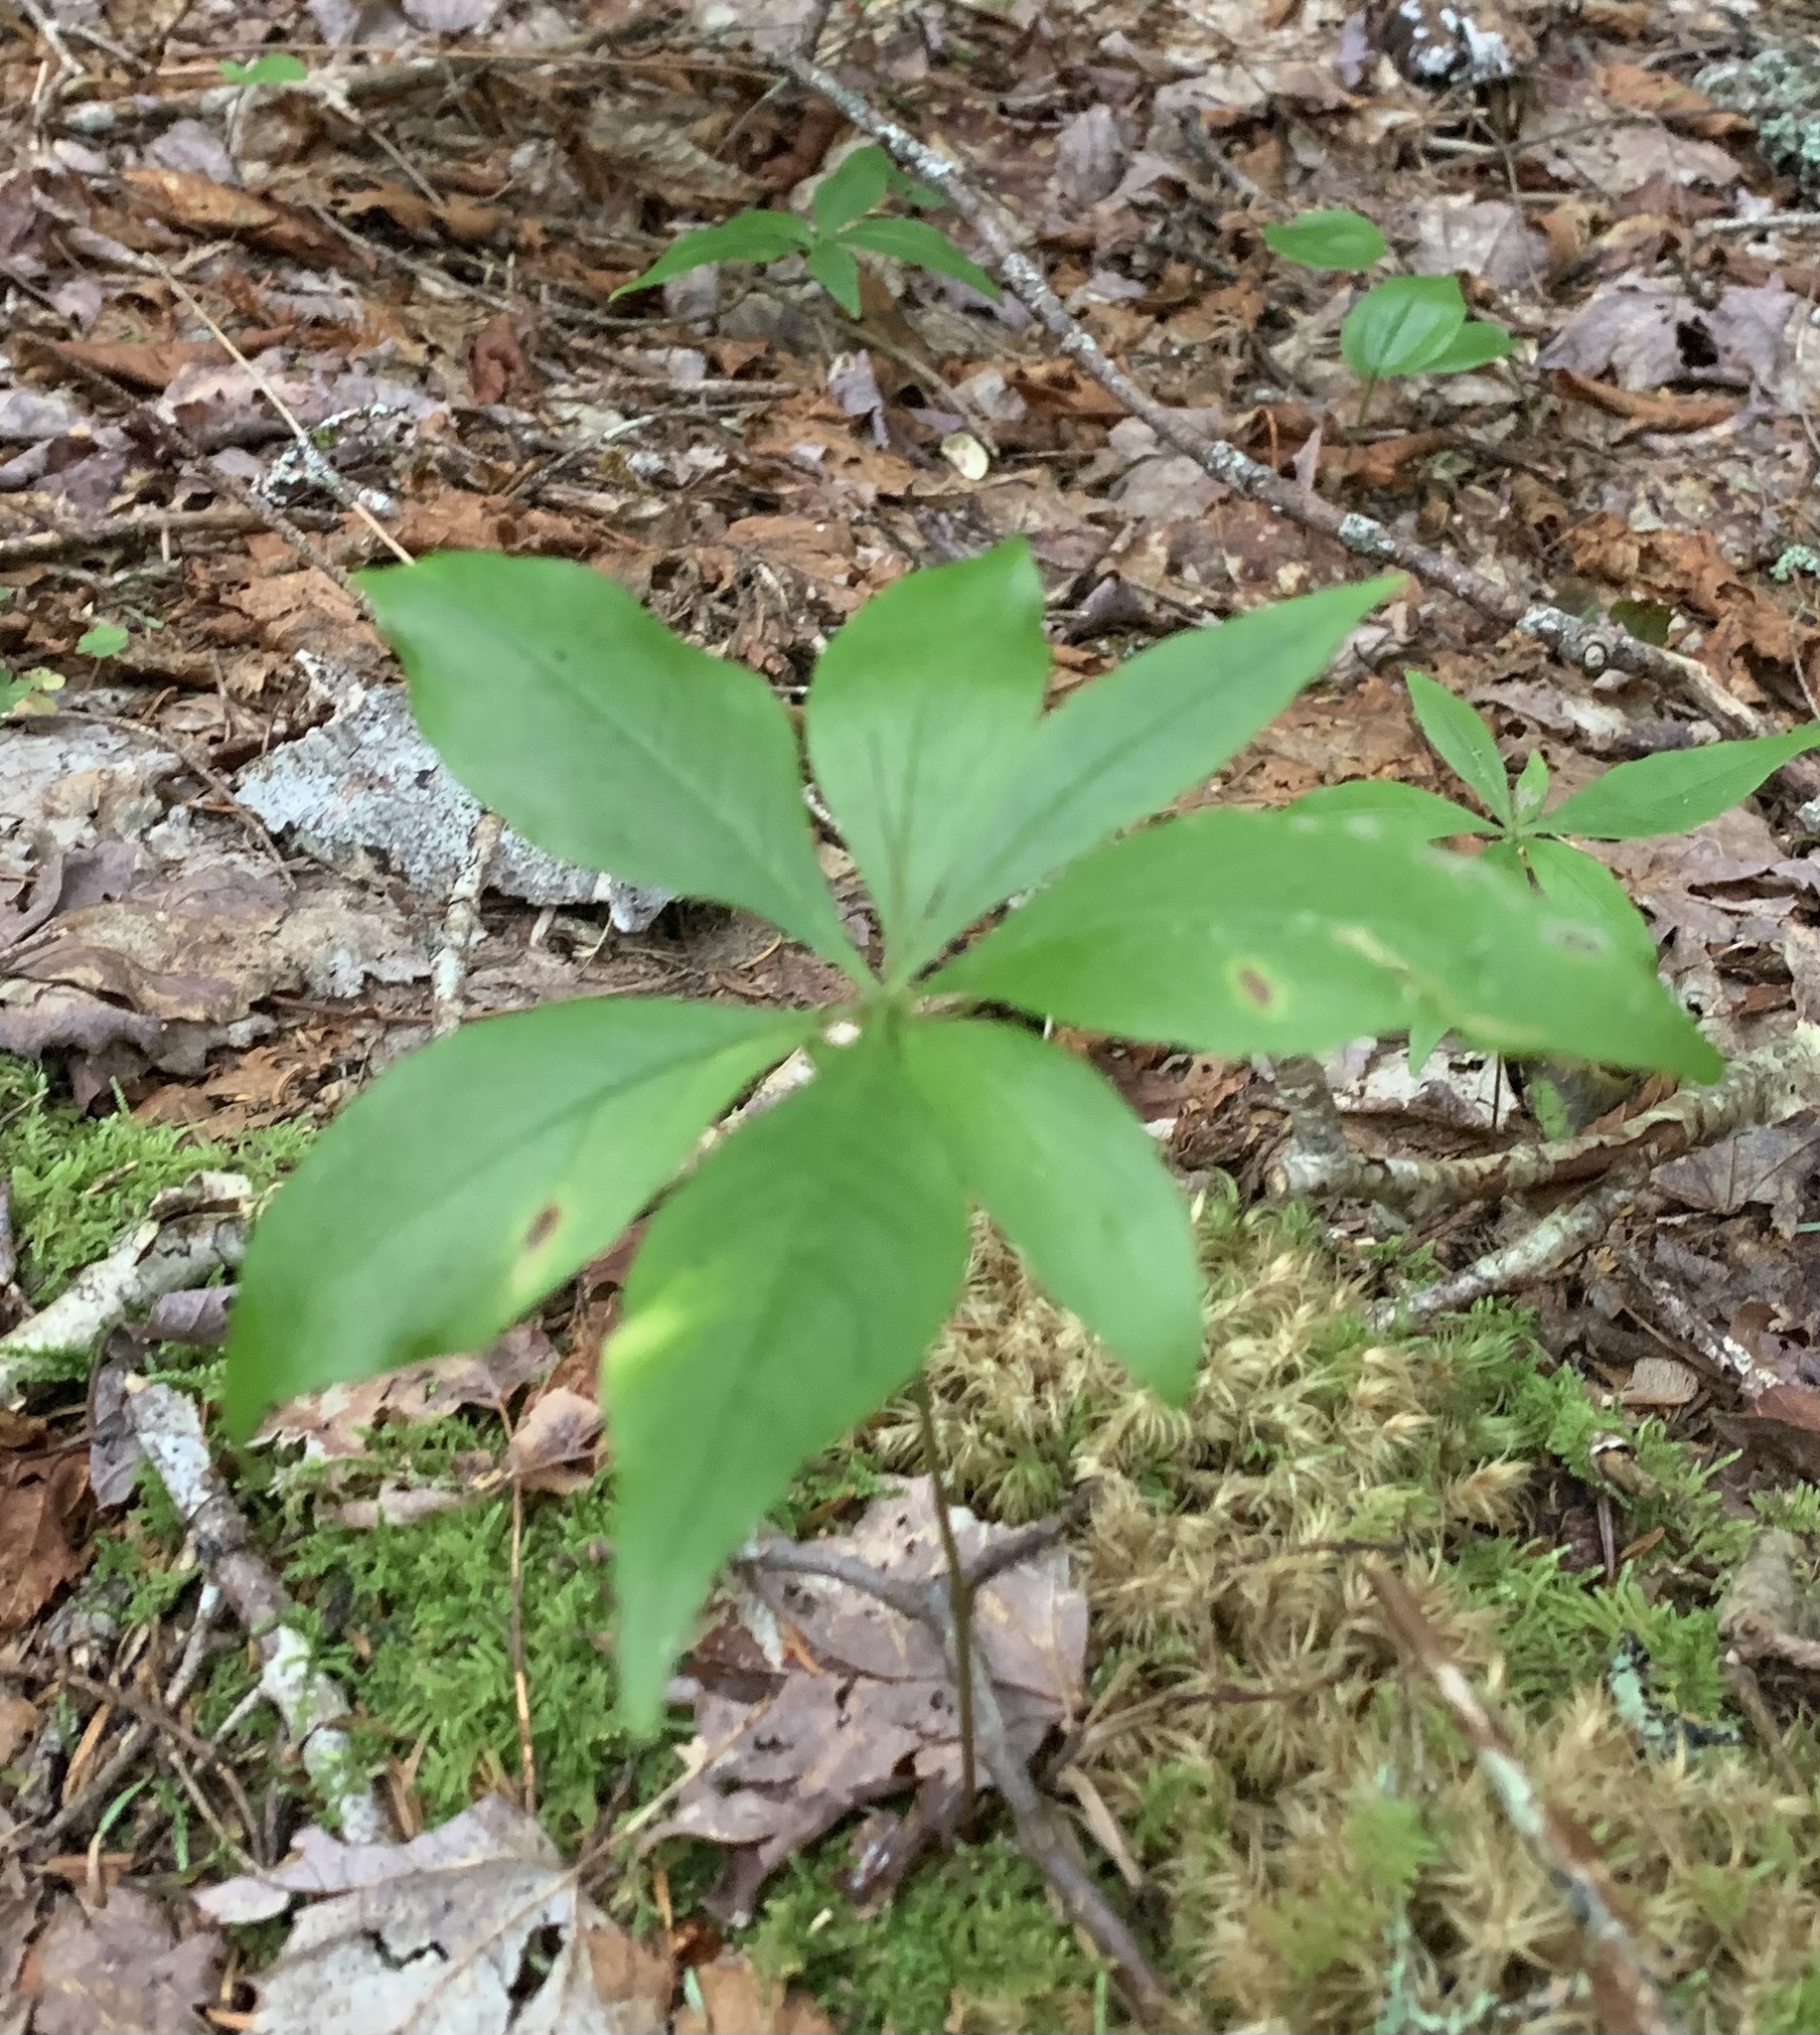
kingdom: Plantae
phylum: Tracheophyta
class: Magnoliopsida
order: Ericales
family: Primulaceae
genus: Lysimachia
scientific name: Lysimachia borealis
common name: American starflower
